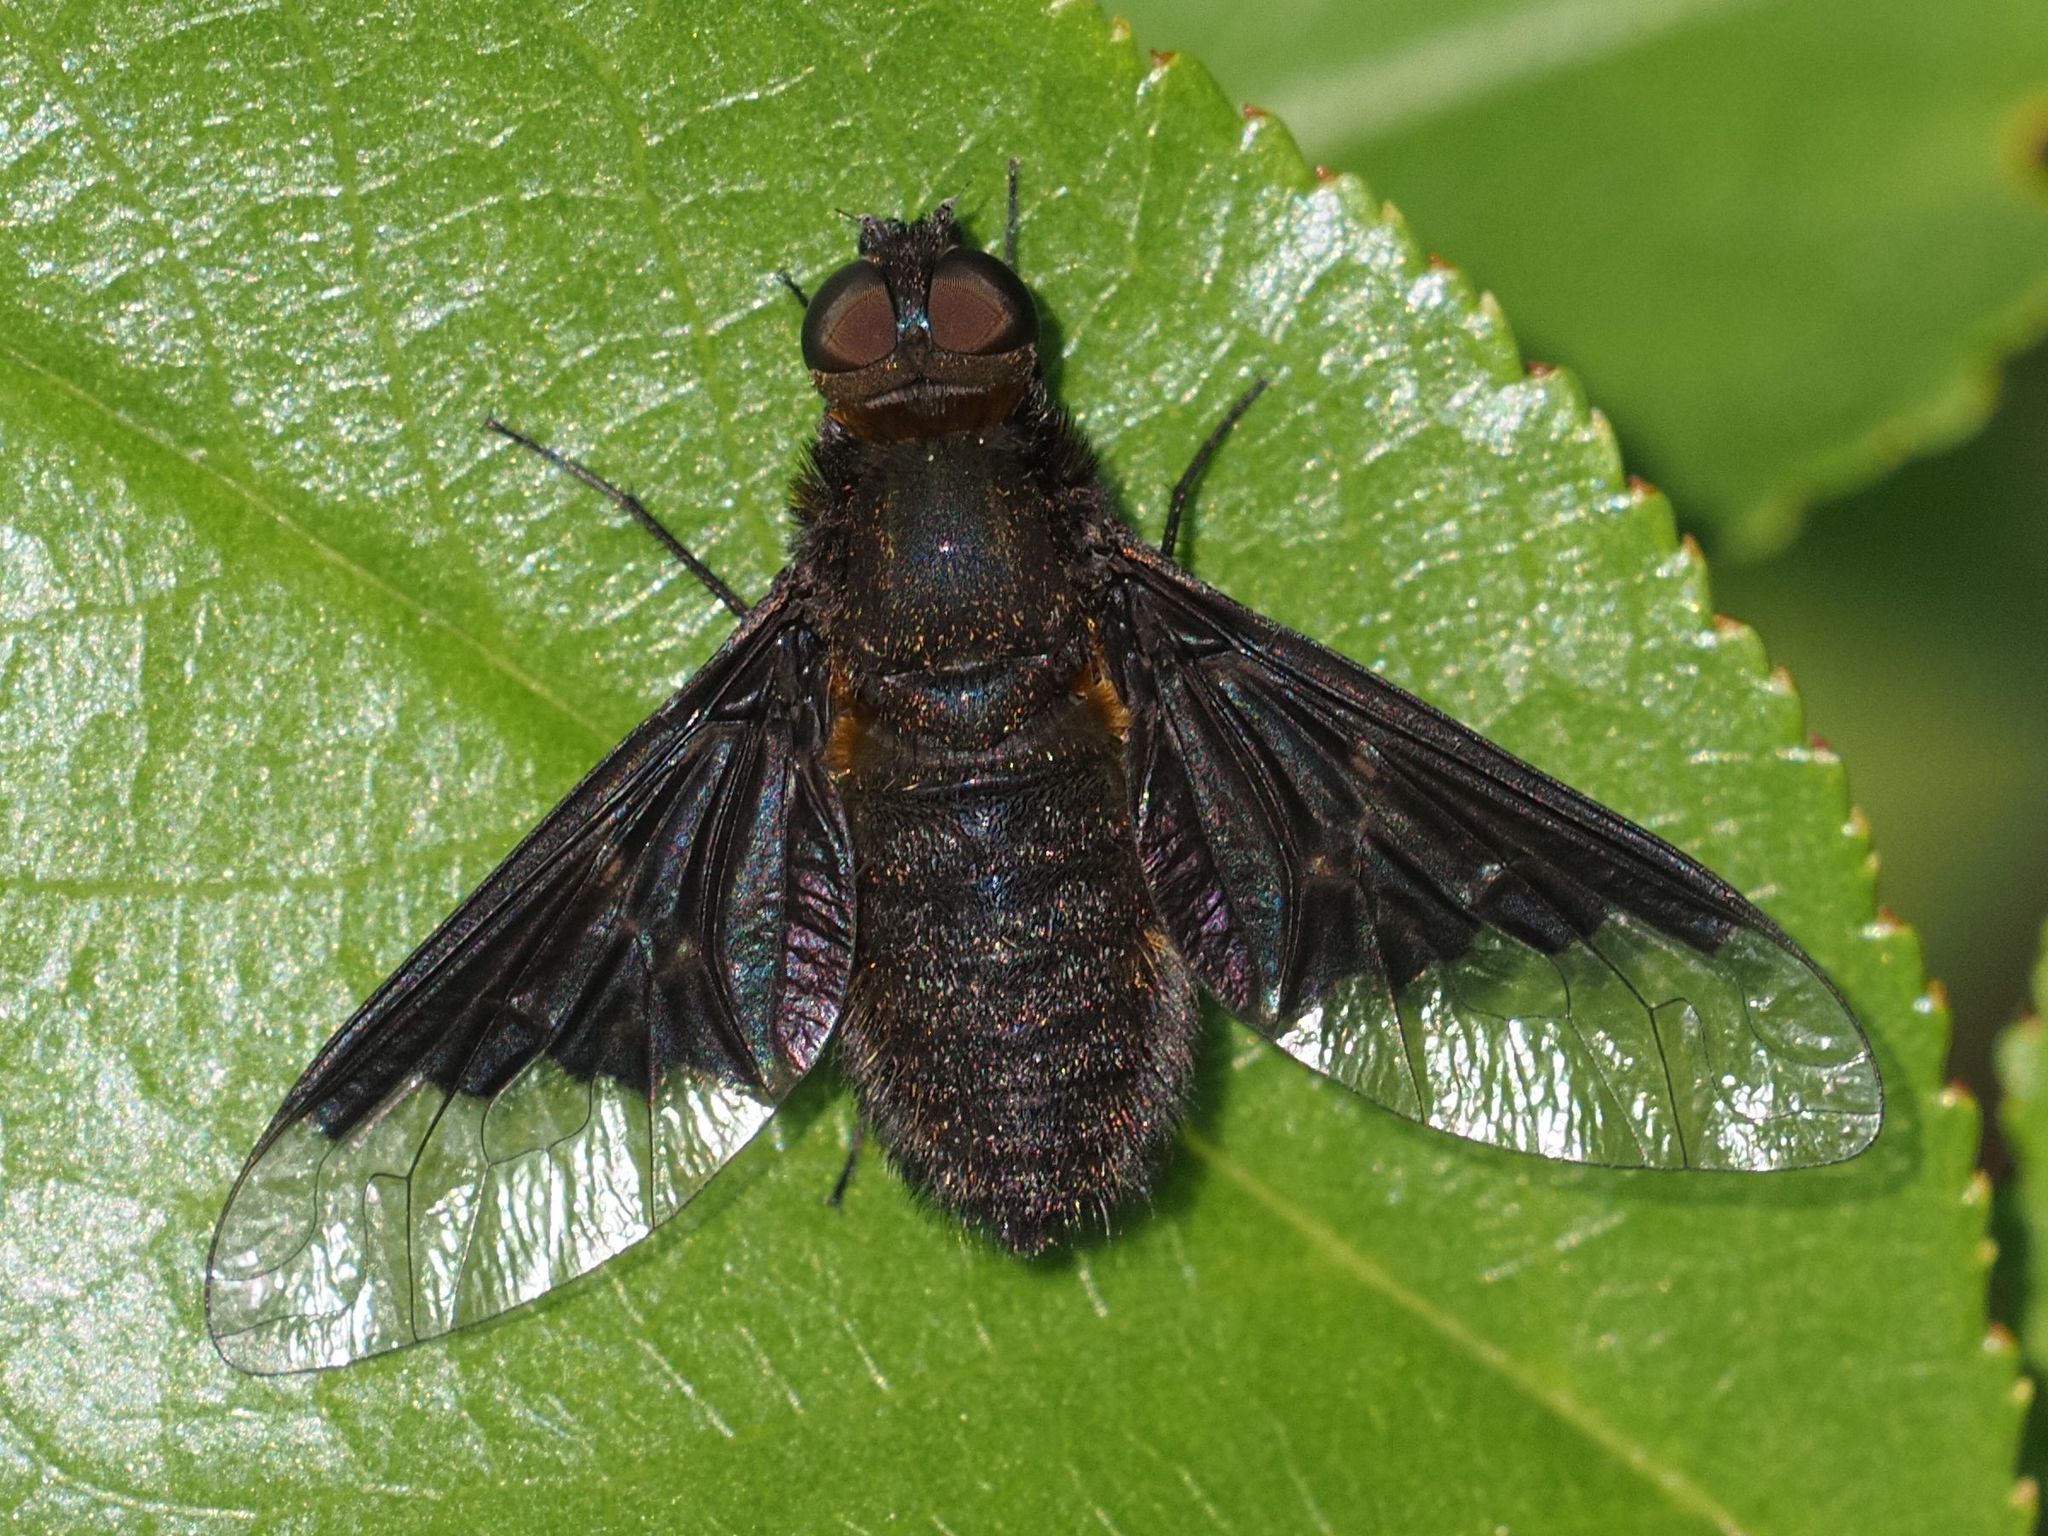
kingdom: Animalia
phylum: Arthropoda
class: Insecta
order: Diptera
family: Bombyliidae
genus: Hemipenthes
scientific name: Hemipenthes morio
